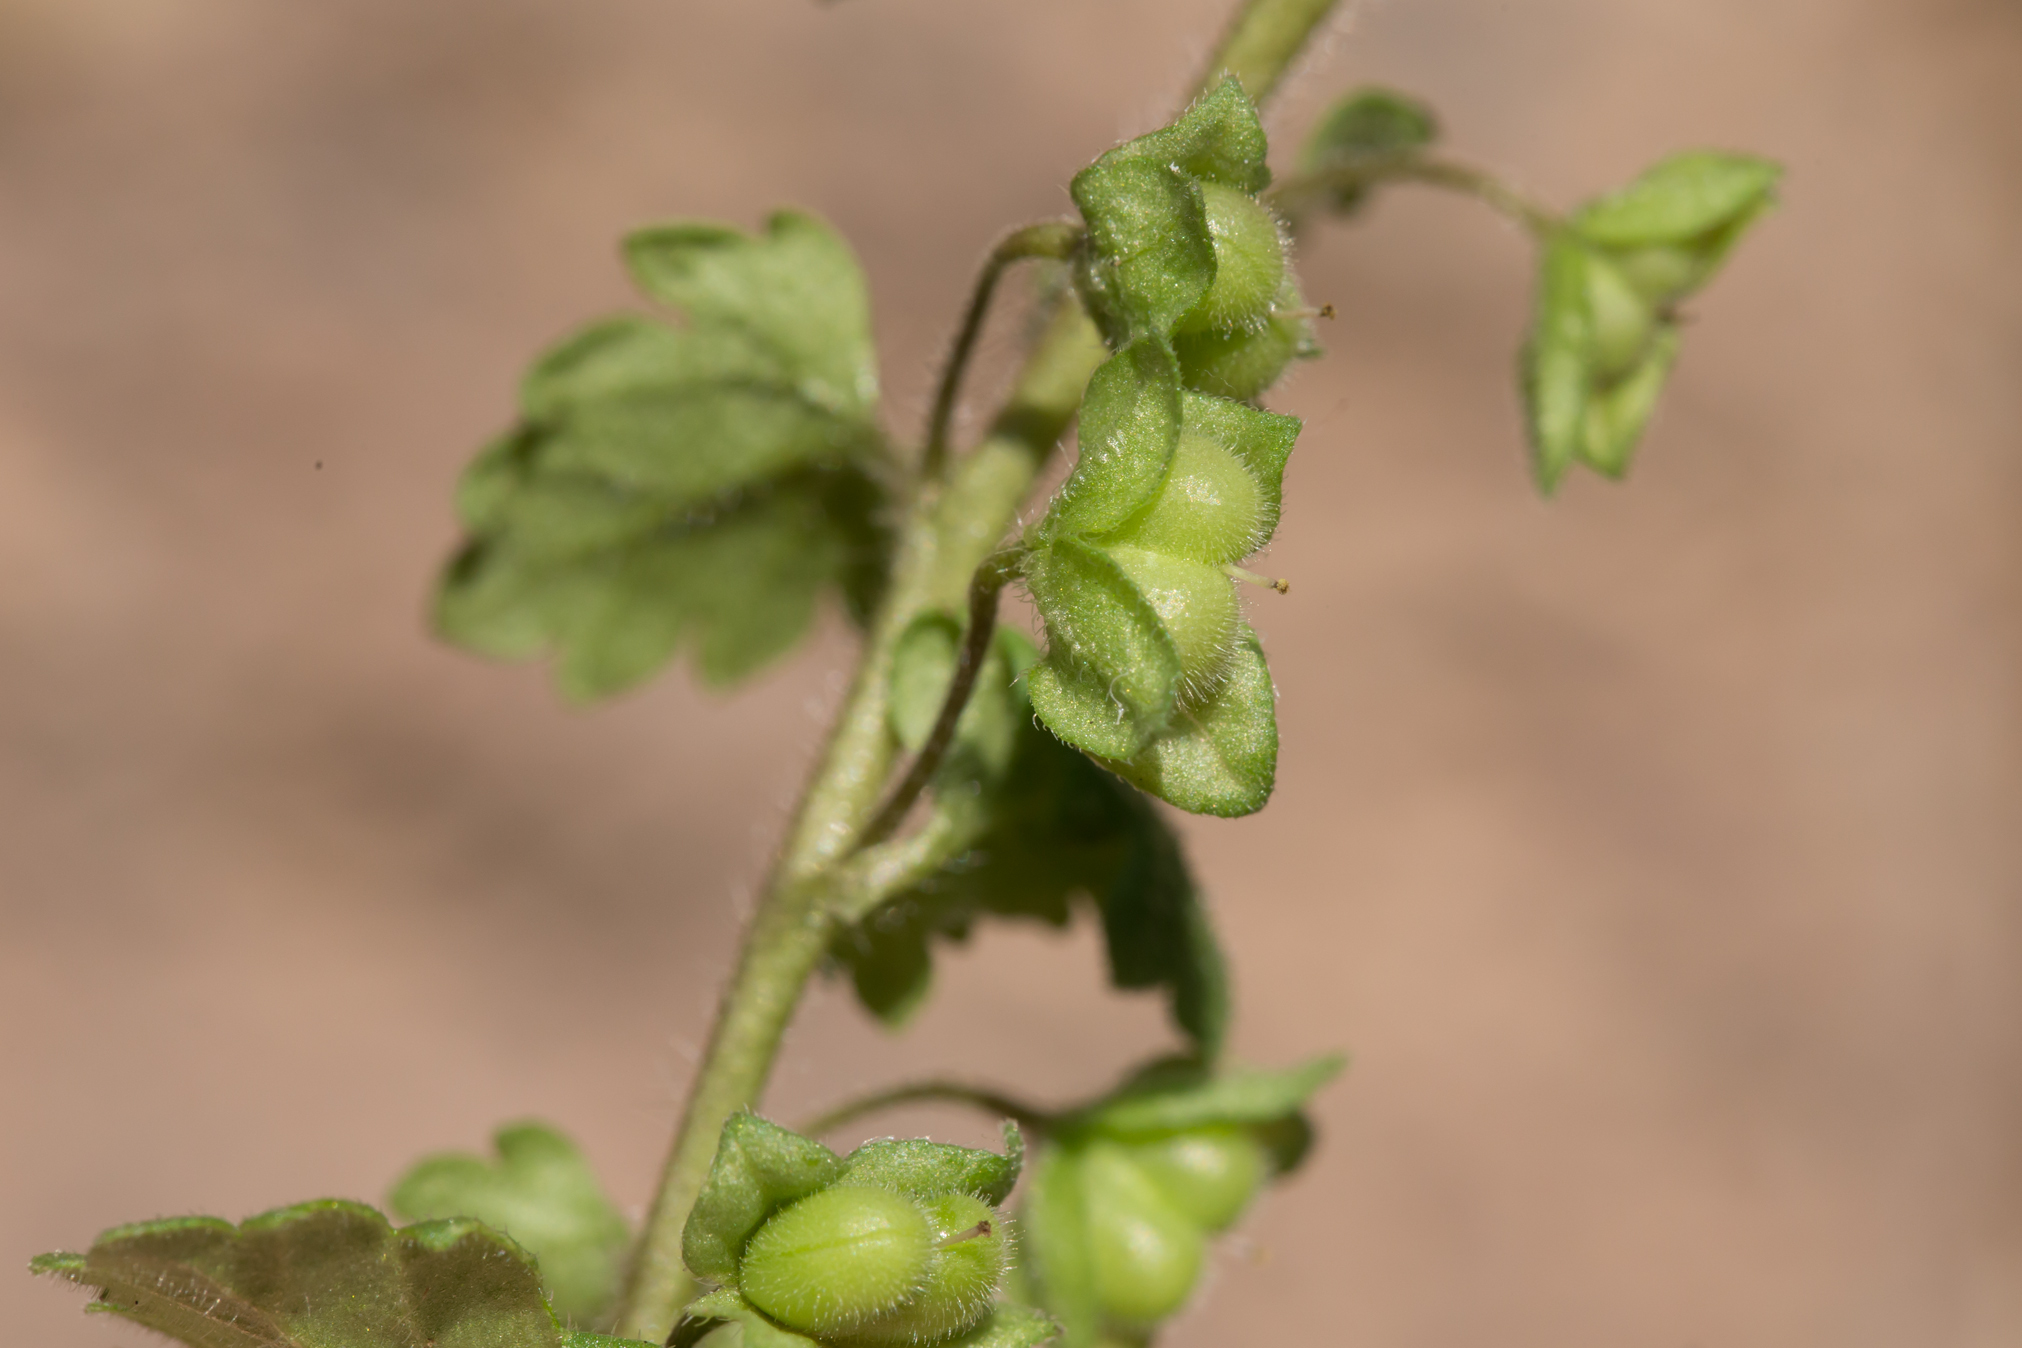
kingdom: Plantae
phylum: Tracheophyta
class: Magnoliopsida
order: Lamiales
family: Plantaginaceae
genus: Veronica
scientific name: Veronica polita
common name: Grey field-speedwell
